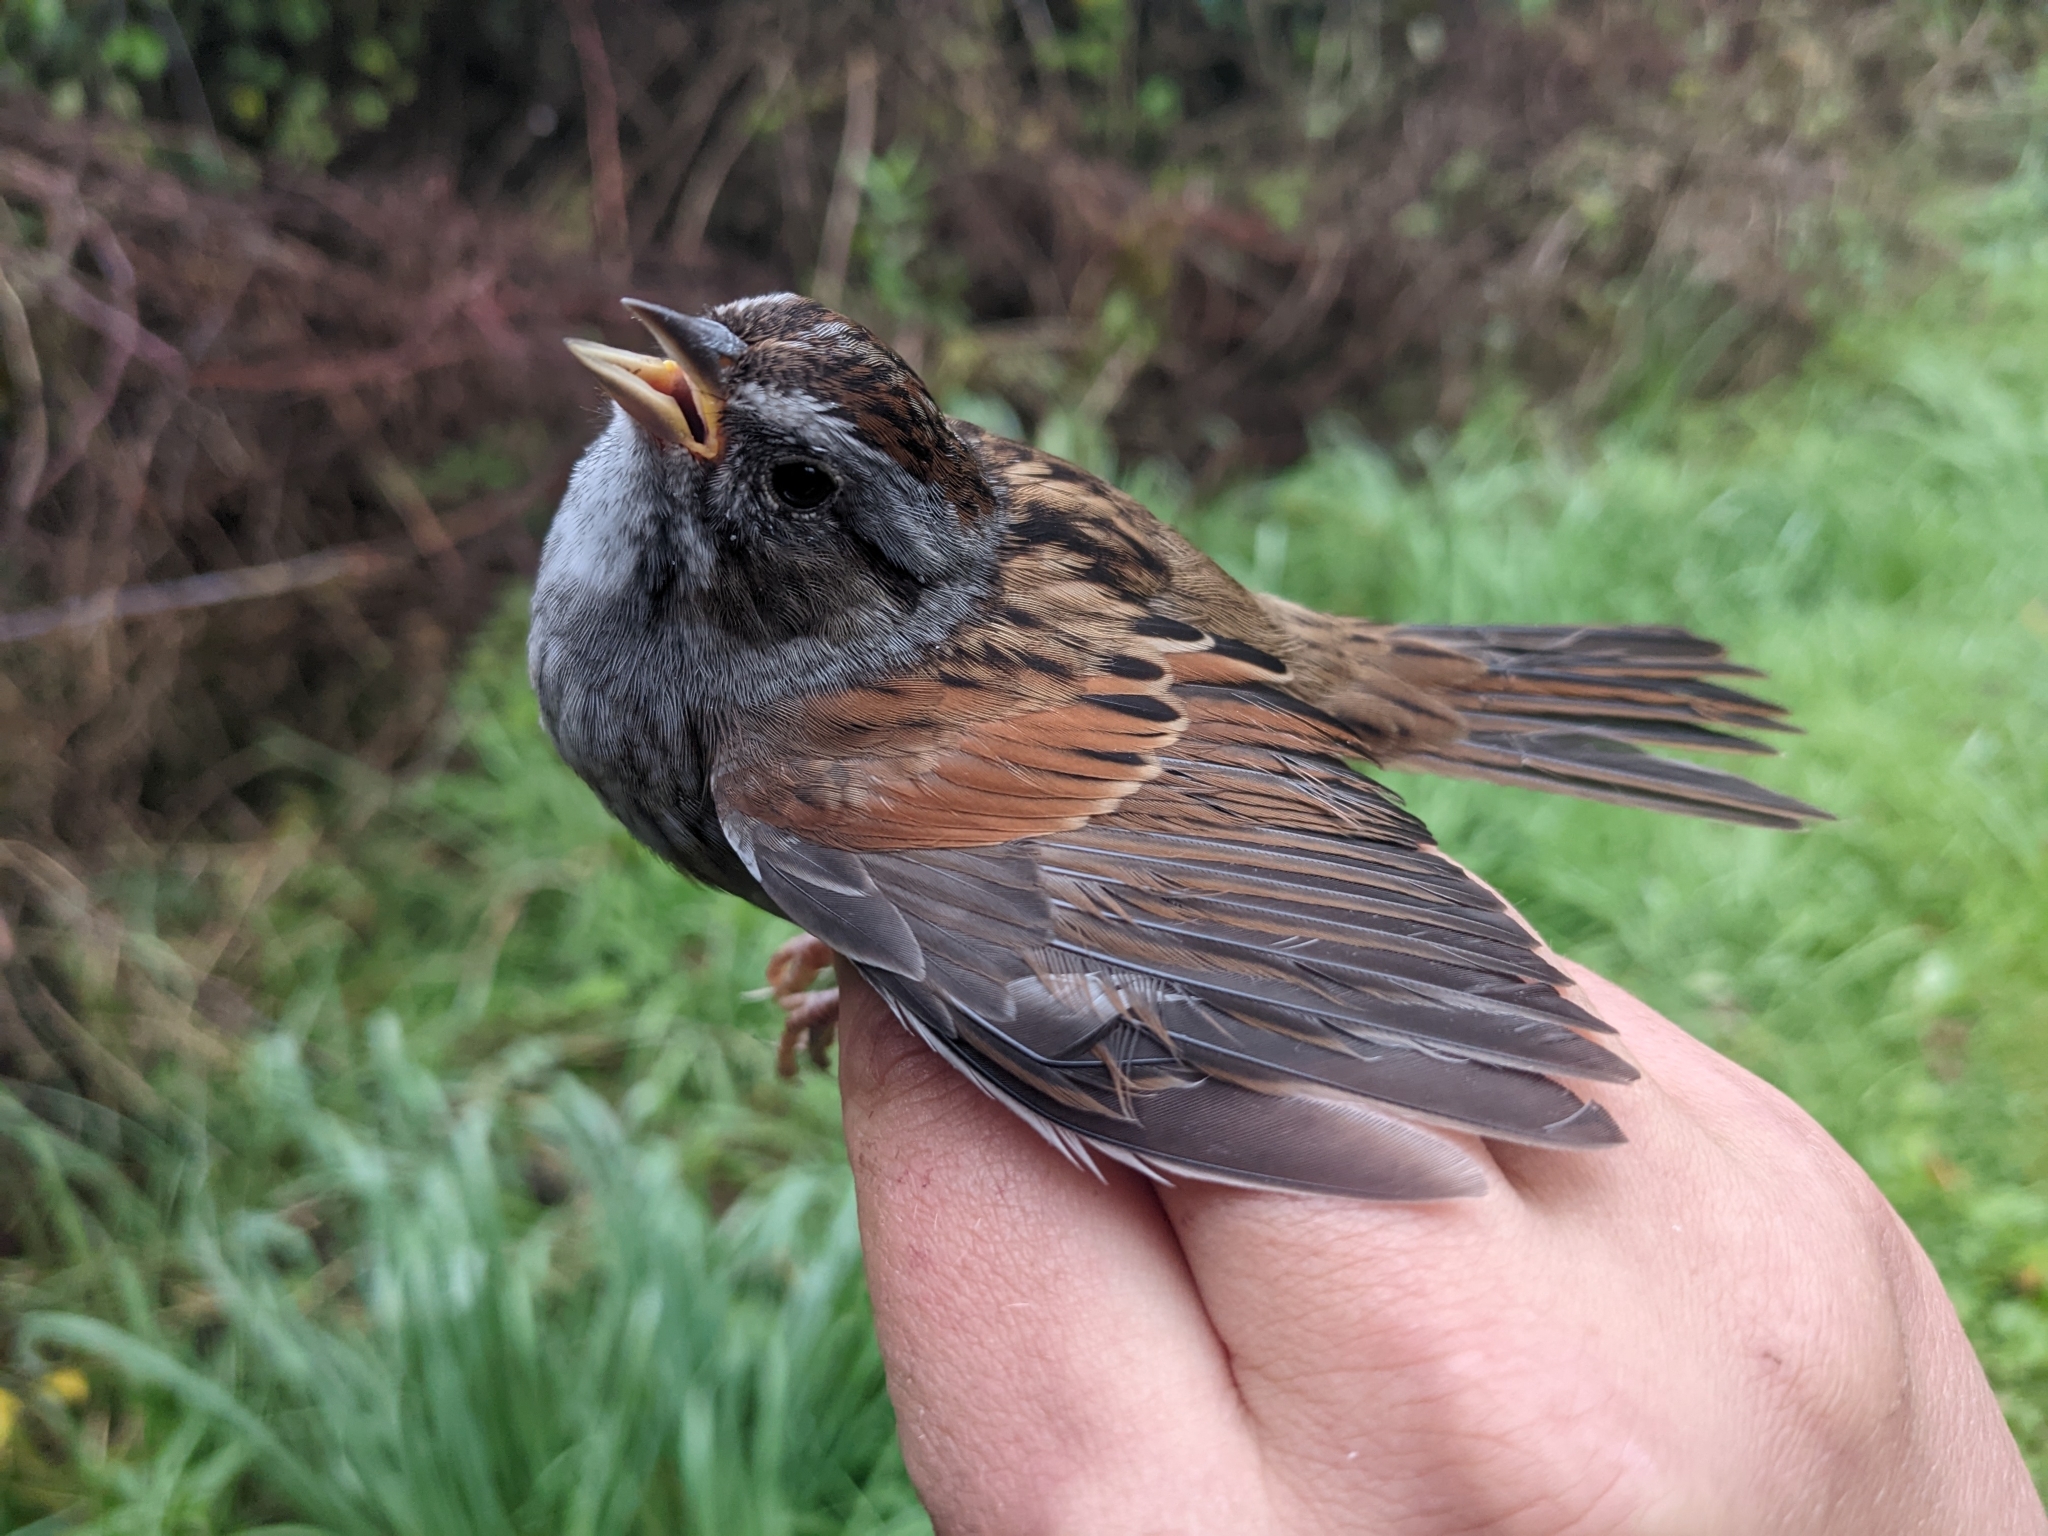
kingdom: Animalia
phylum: Chordata
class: Aves
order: Passeriformes
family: Passerellidae
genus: Melospiza
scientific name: Melospiza georgiana
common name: Swamp sparrow
